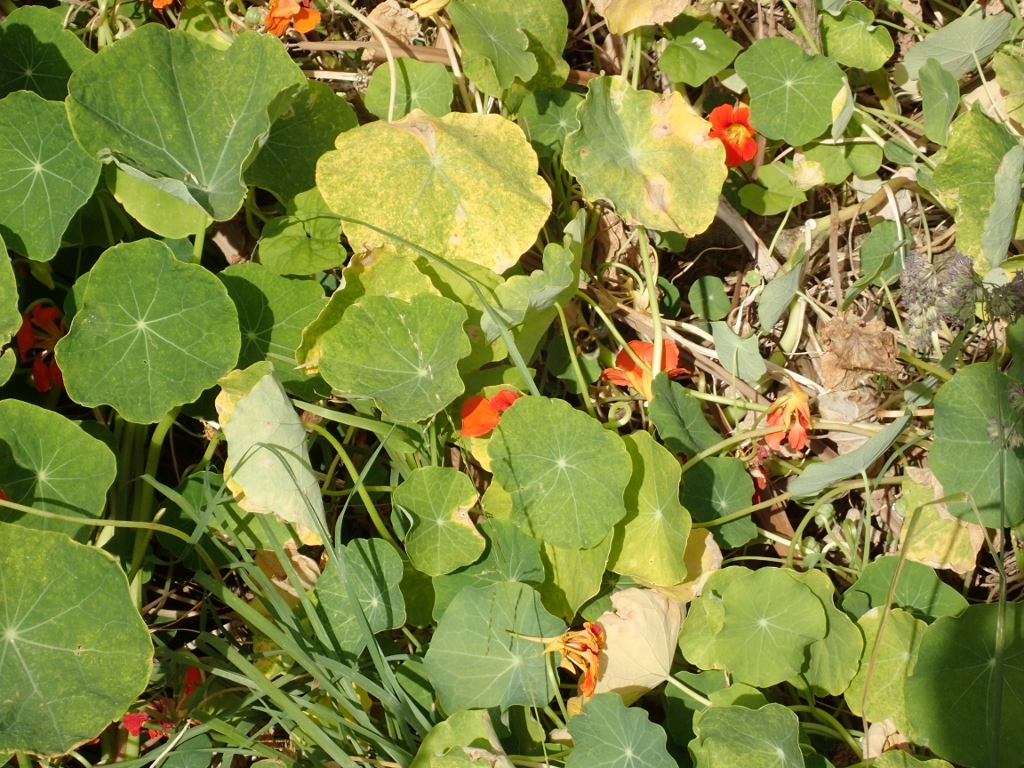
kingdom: Plantae
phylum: Tracheophyta
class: Magnoliopsida
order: Brassicales
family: Tropaeolaceae
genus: Tropaeolum
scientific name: Tropaeolum majus
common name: Nasturtium
